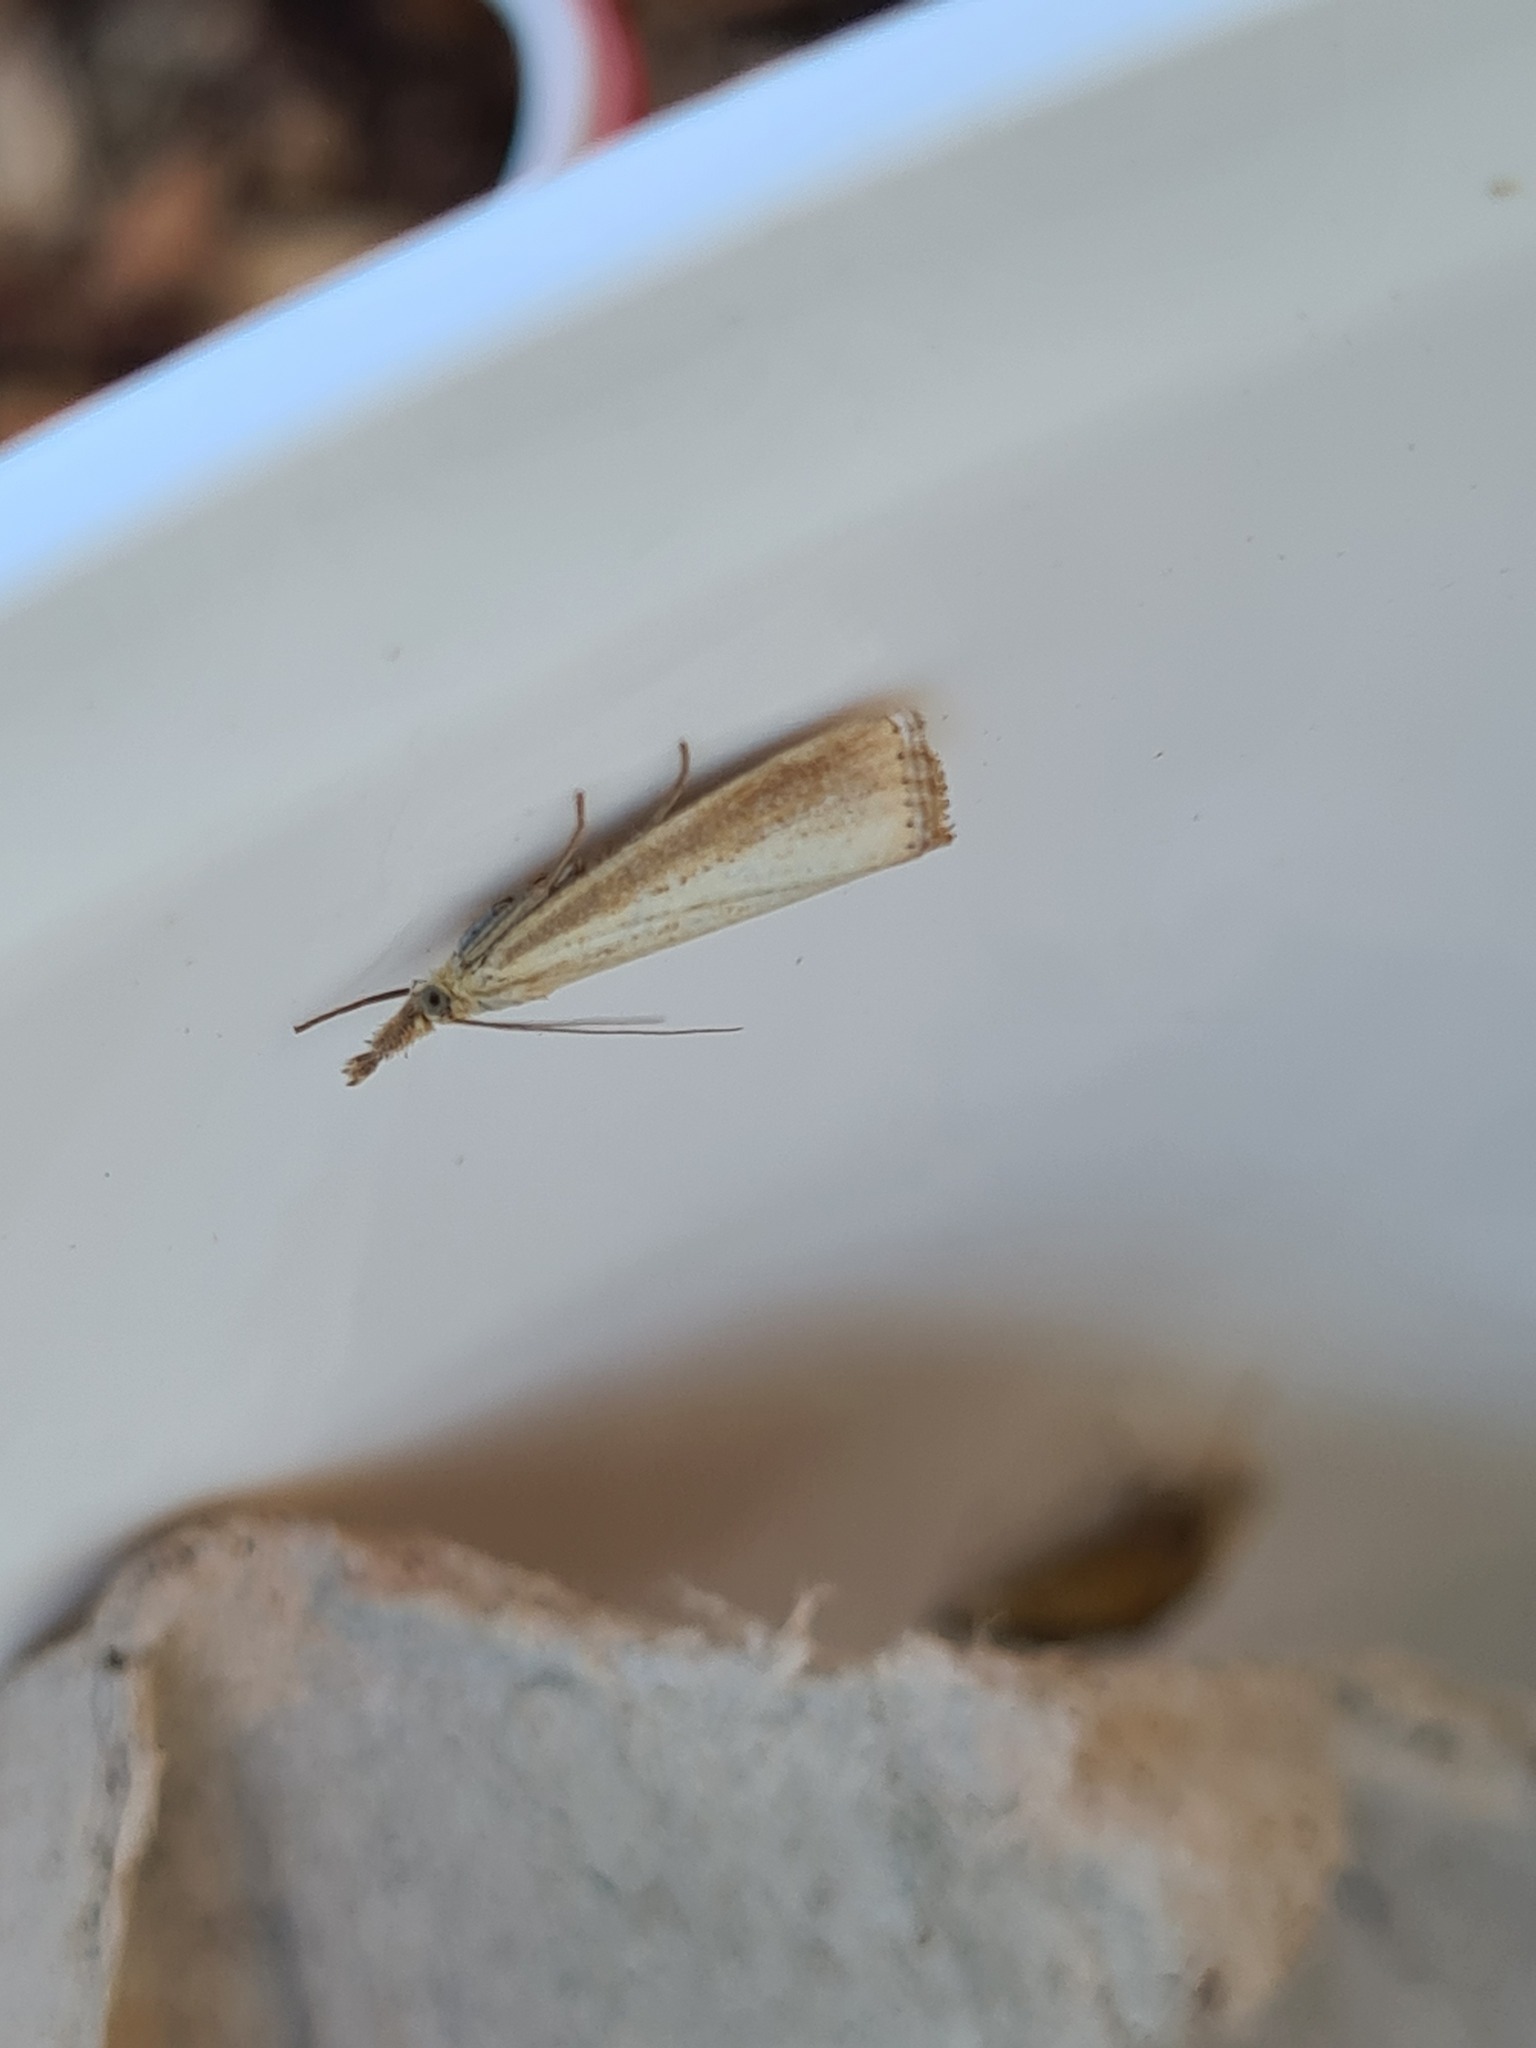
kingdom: Animalia
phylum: Arthropoda
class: Insecta
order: Lepidoptera
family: Crambidae
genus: Agriphila
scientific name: Agriphila straminella
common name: Straw grass-veneer
